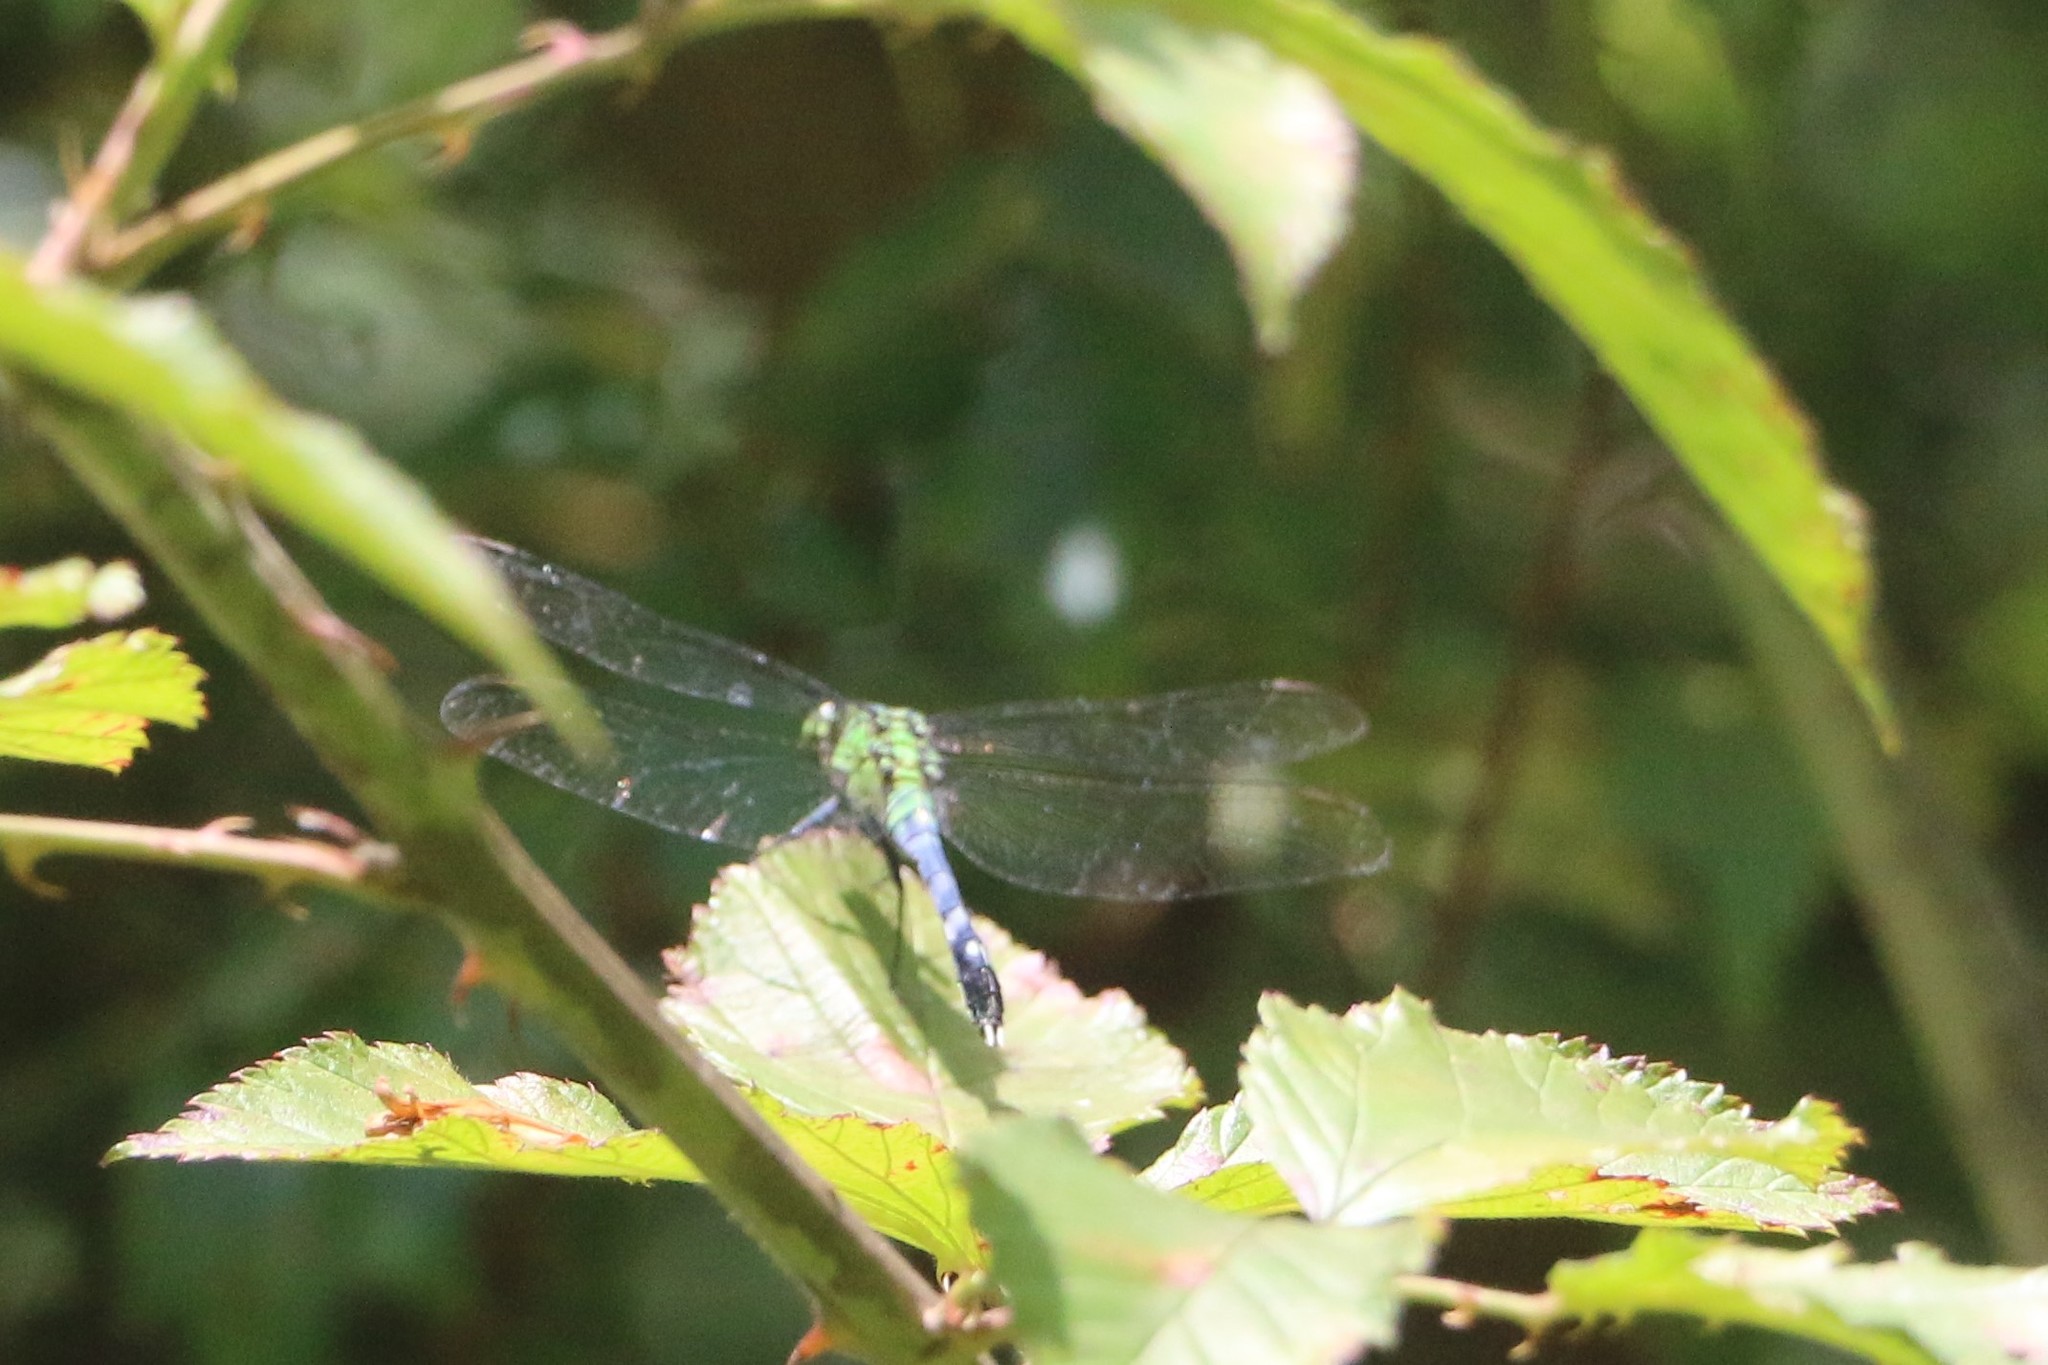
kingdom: Animalia
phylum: Arthropoda
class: Insecta
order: Odonata
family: Libellulidae
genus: Erythemis
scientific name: Erythemis simplicicollis
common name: Eastern pondhawk
